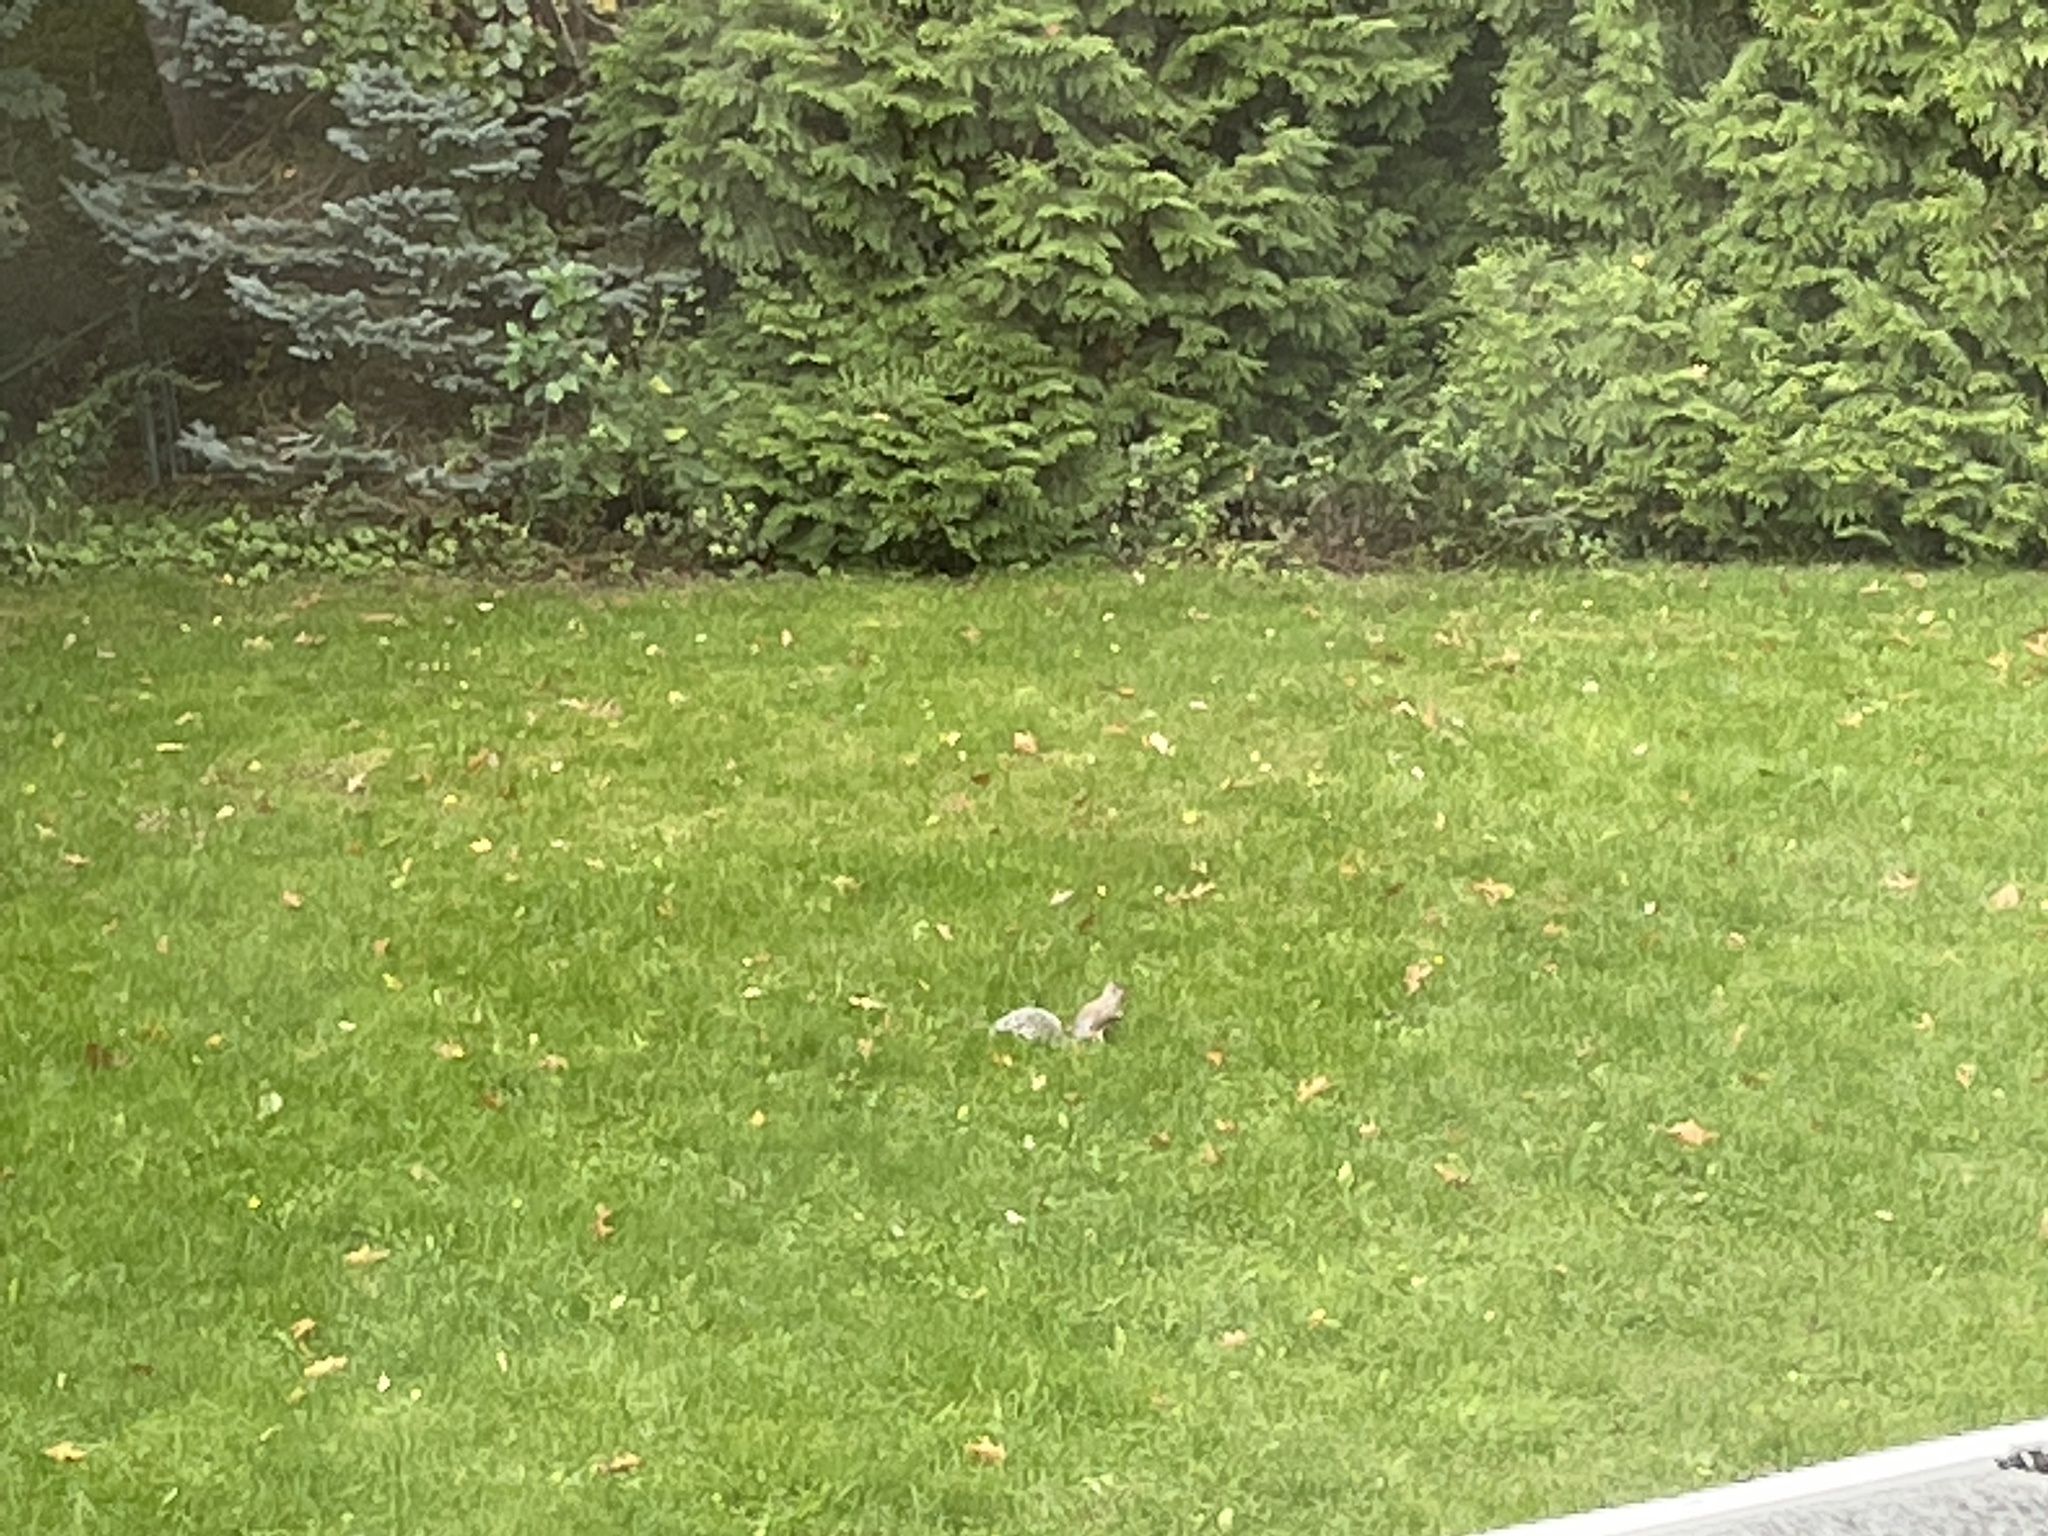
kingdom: Animalia
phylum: Chordata
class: Mammalia
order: Rodentia
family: Sciuridae
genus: Sciurus
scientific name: Sciurus carolinensis
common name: Eastern gray squirrel
